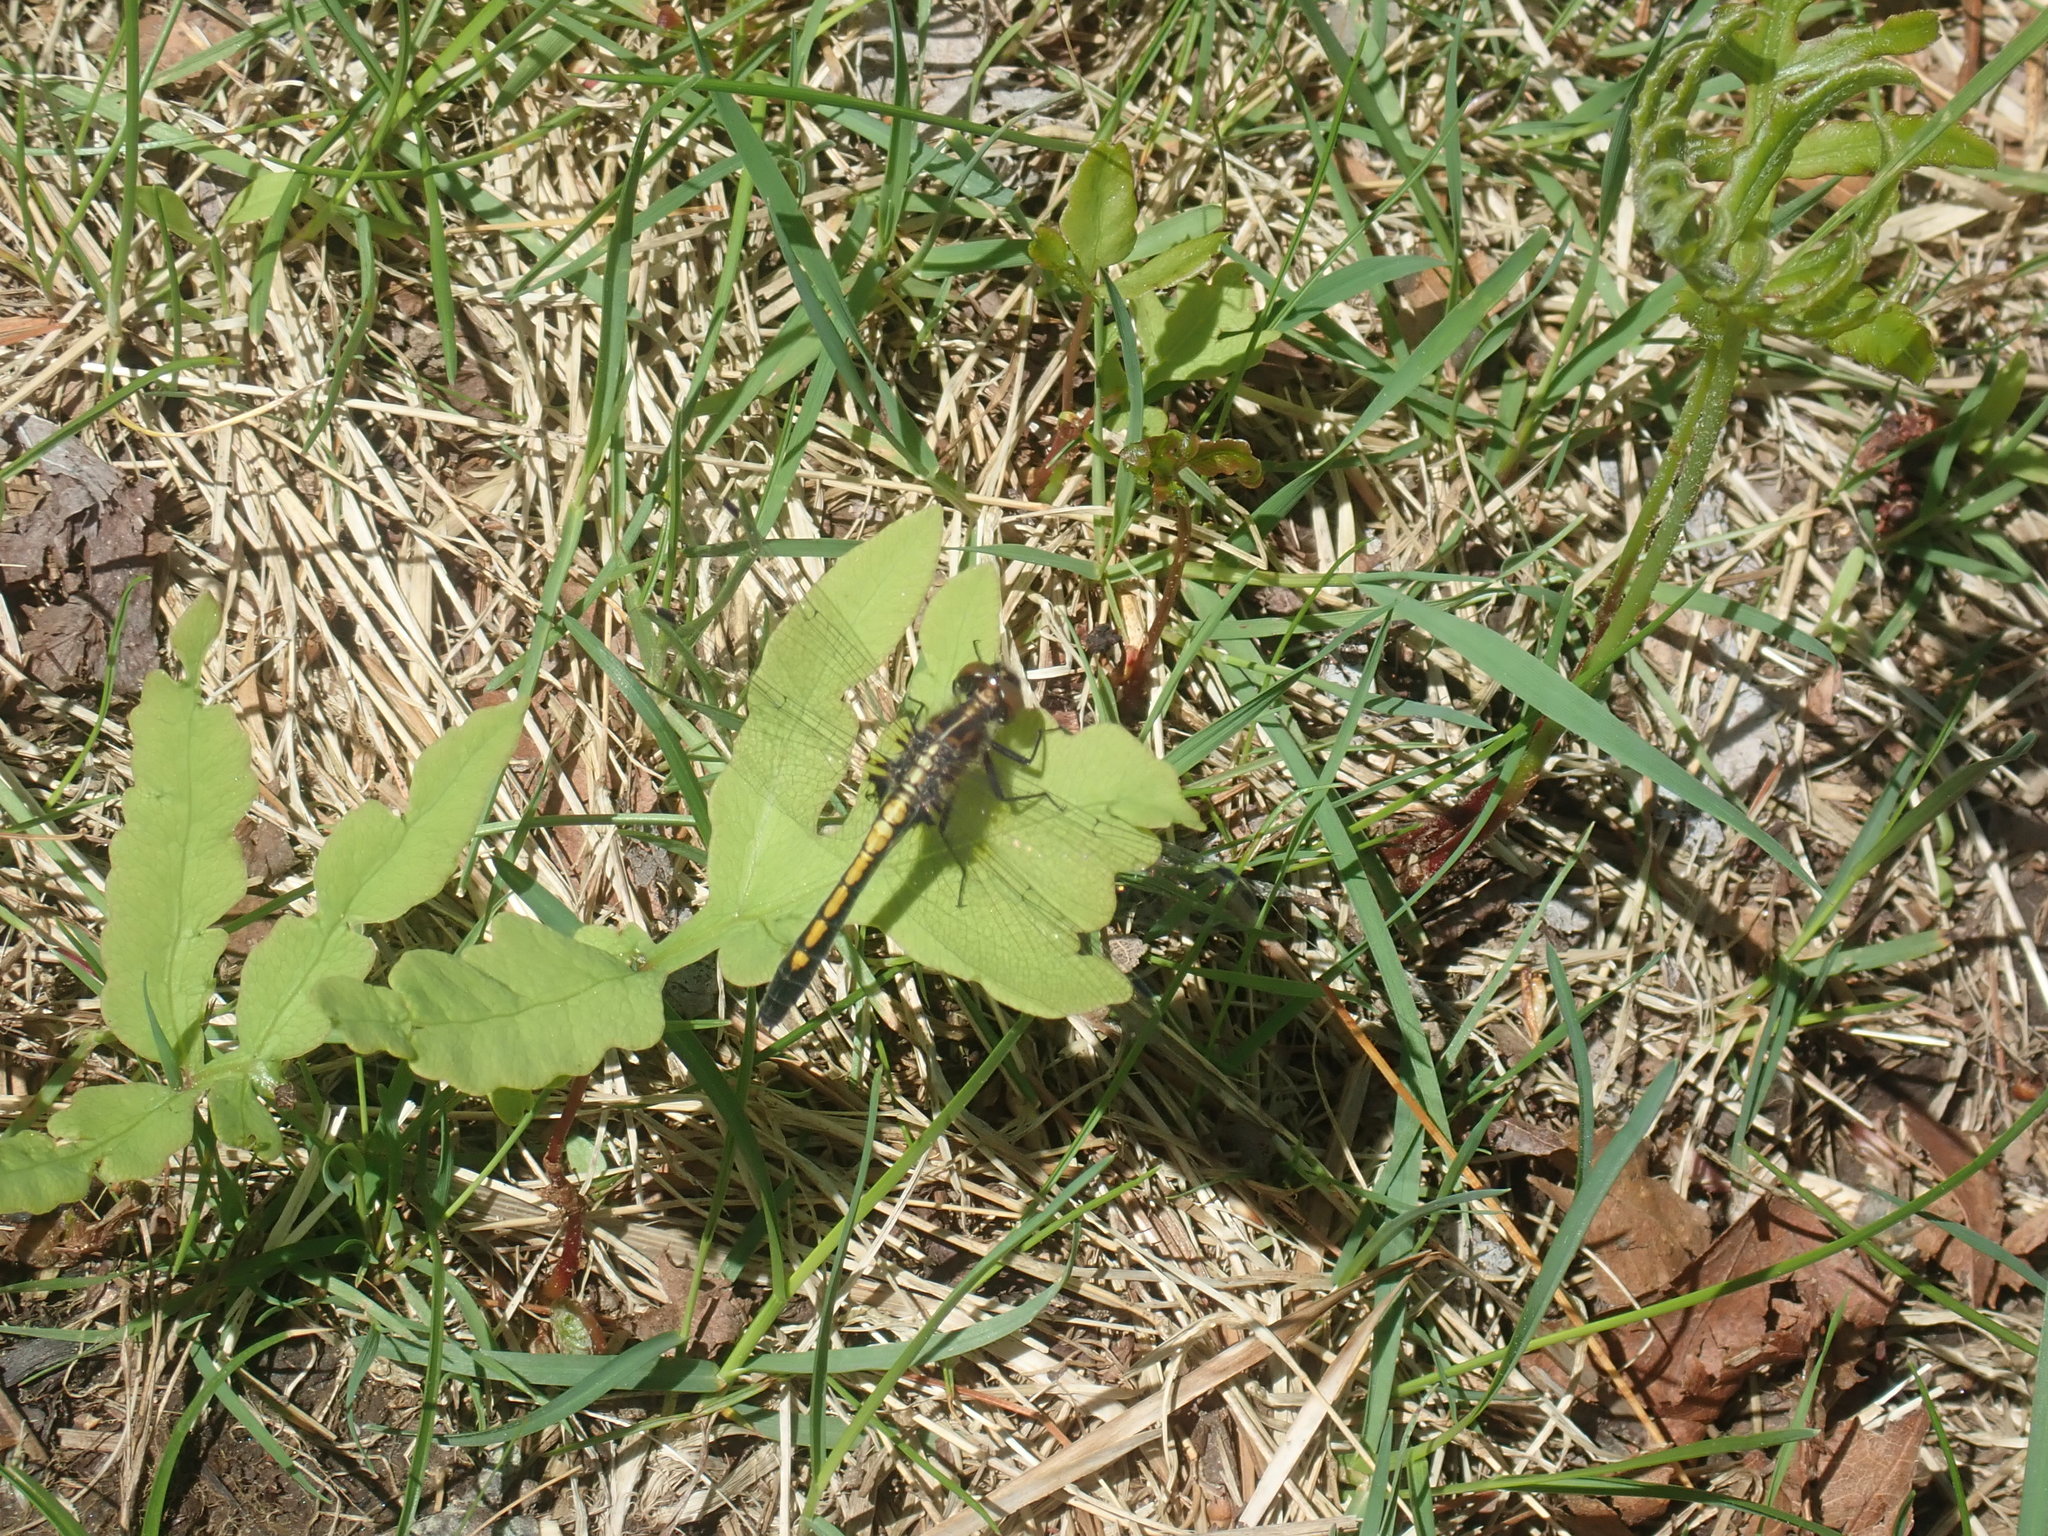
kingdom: Animalia
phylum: Arthropoda
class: Insecta
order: Odonata
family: Libellulidae
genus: Leucorrhinia
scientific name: Leucorrhinia intacta
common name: Dot-tailed whiteface
